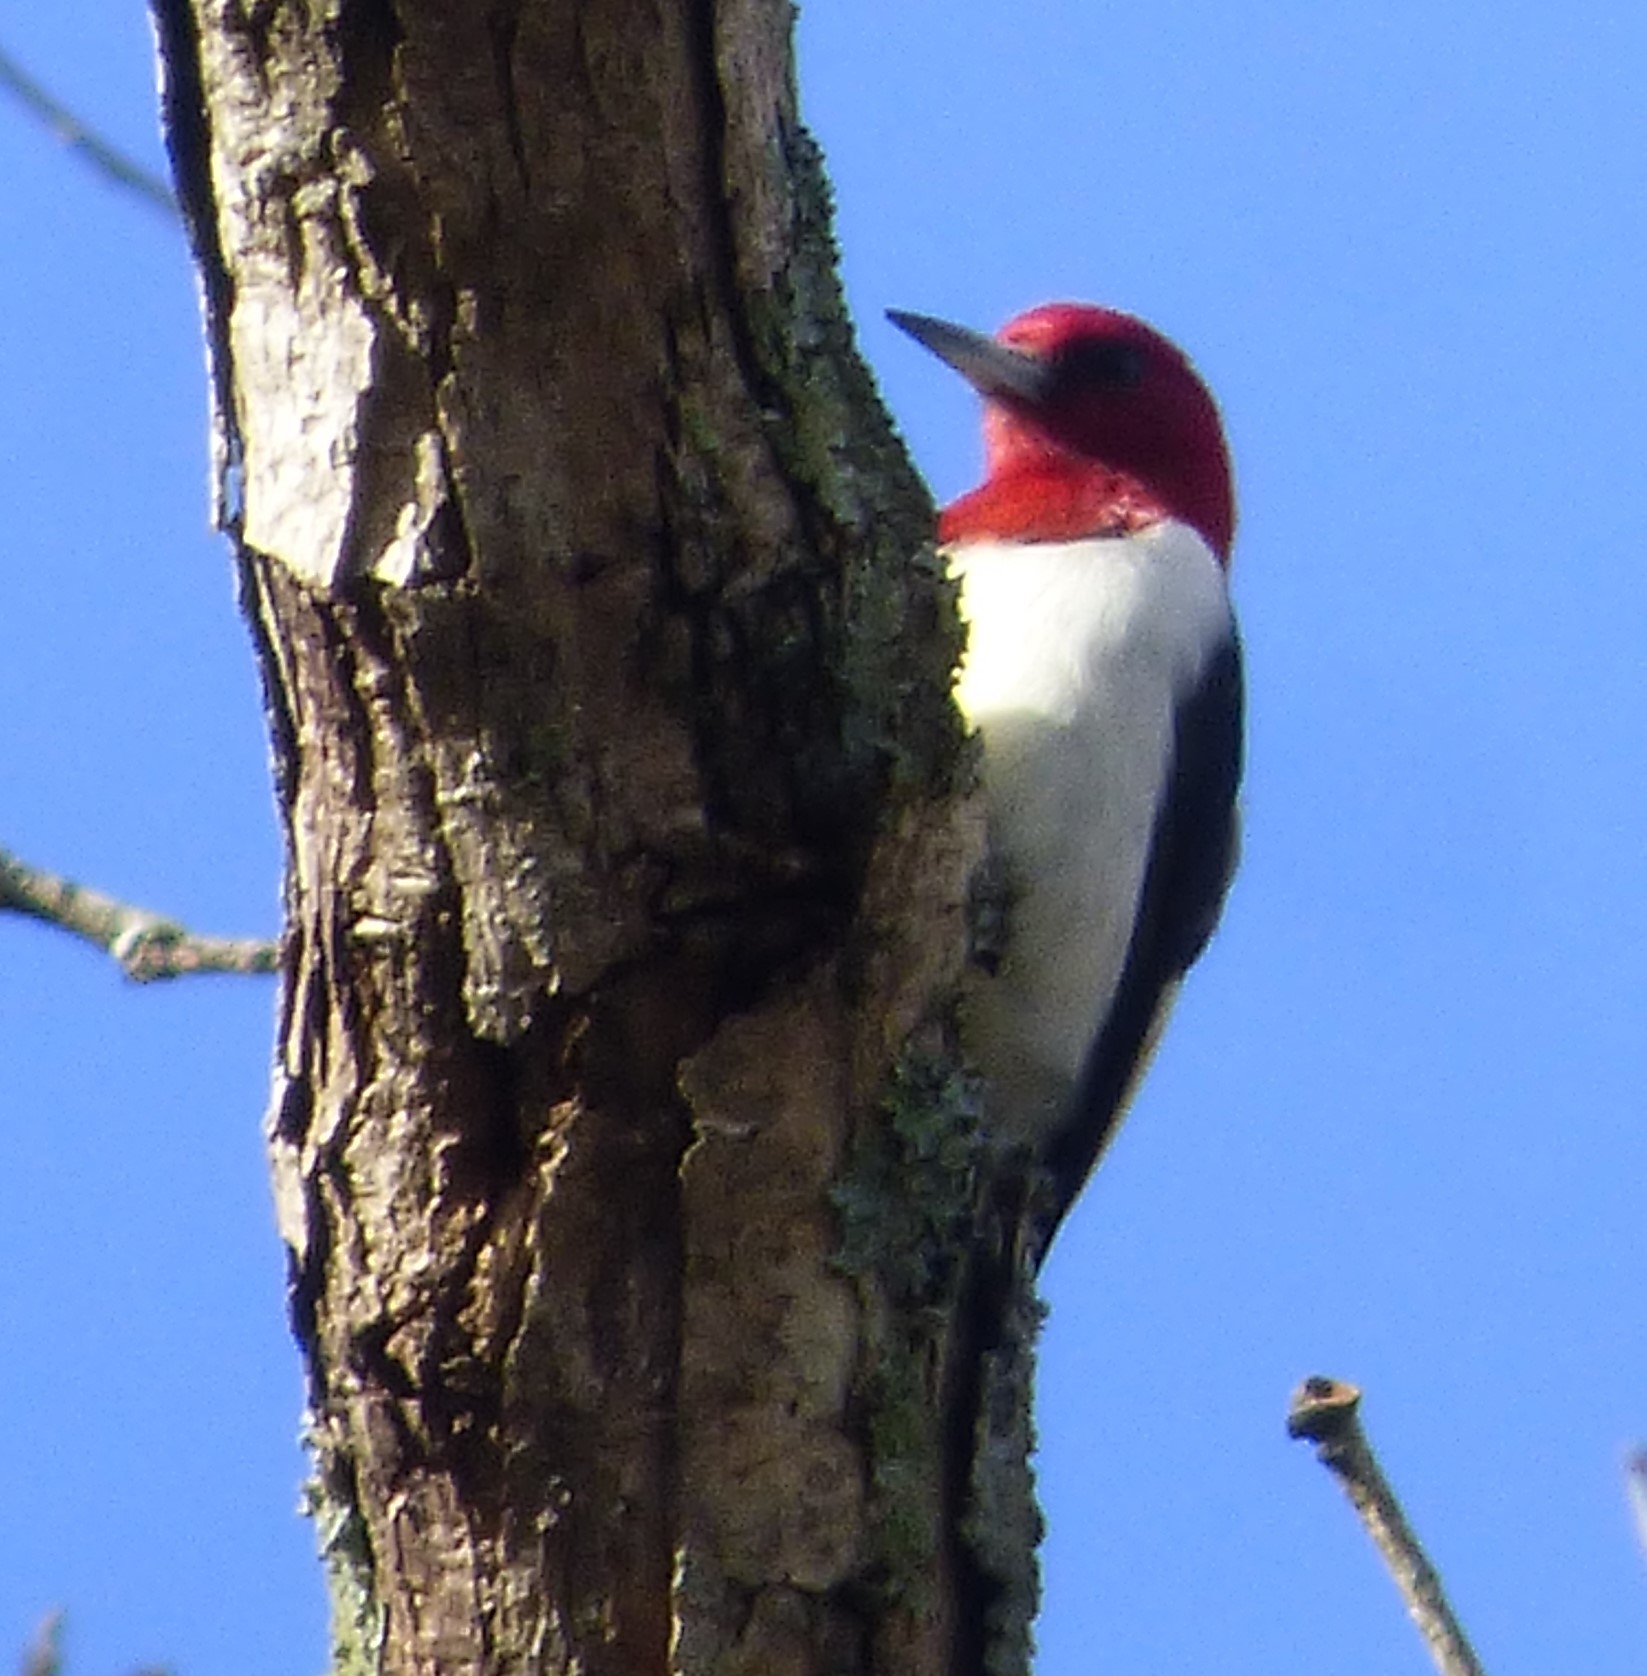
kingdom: Animalia
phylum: Chordata
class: Aves
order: Piciformes
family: Picidae
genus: Melanerpes
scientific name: Melanerpes erythrocephalus
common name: Red-headed woodpecker
